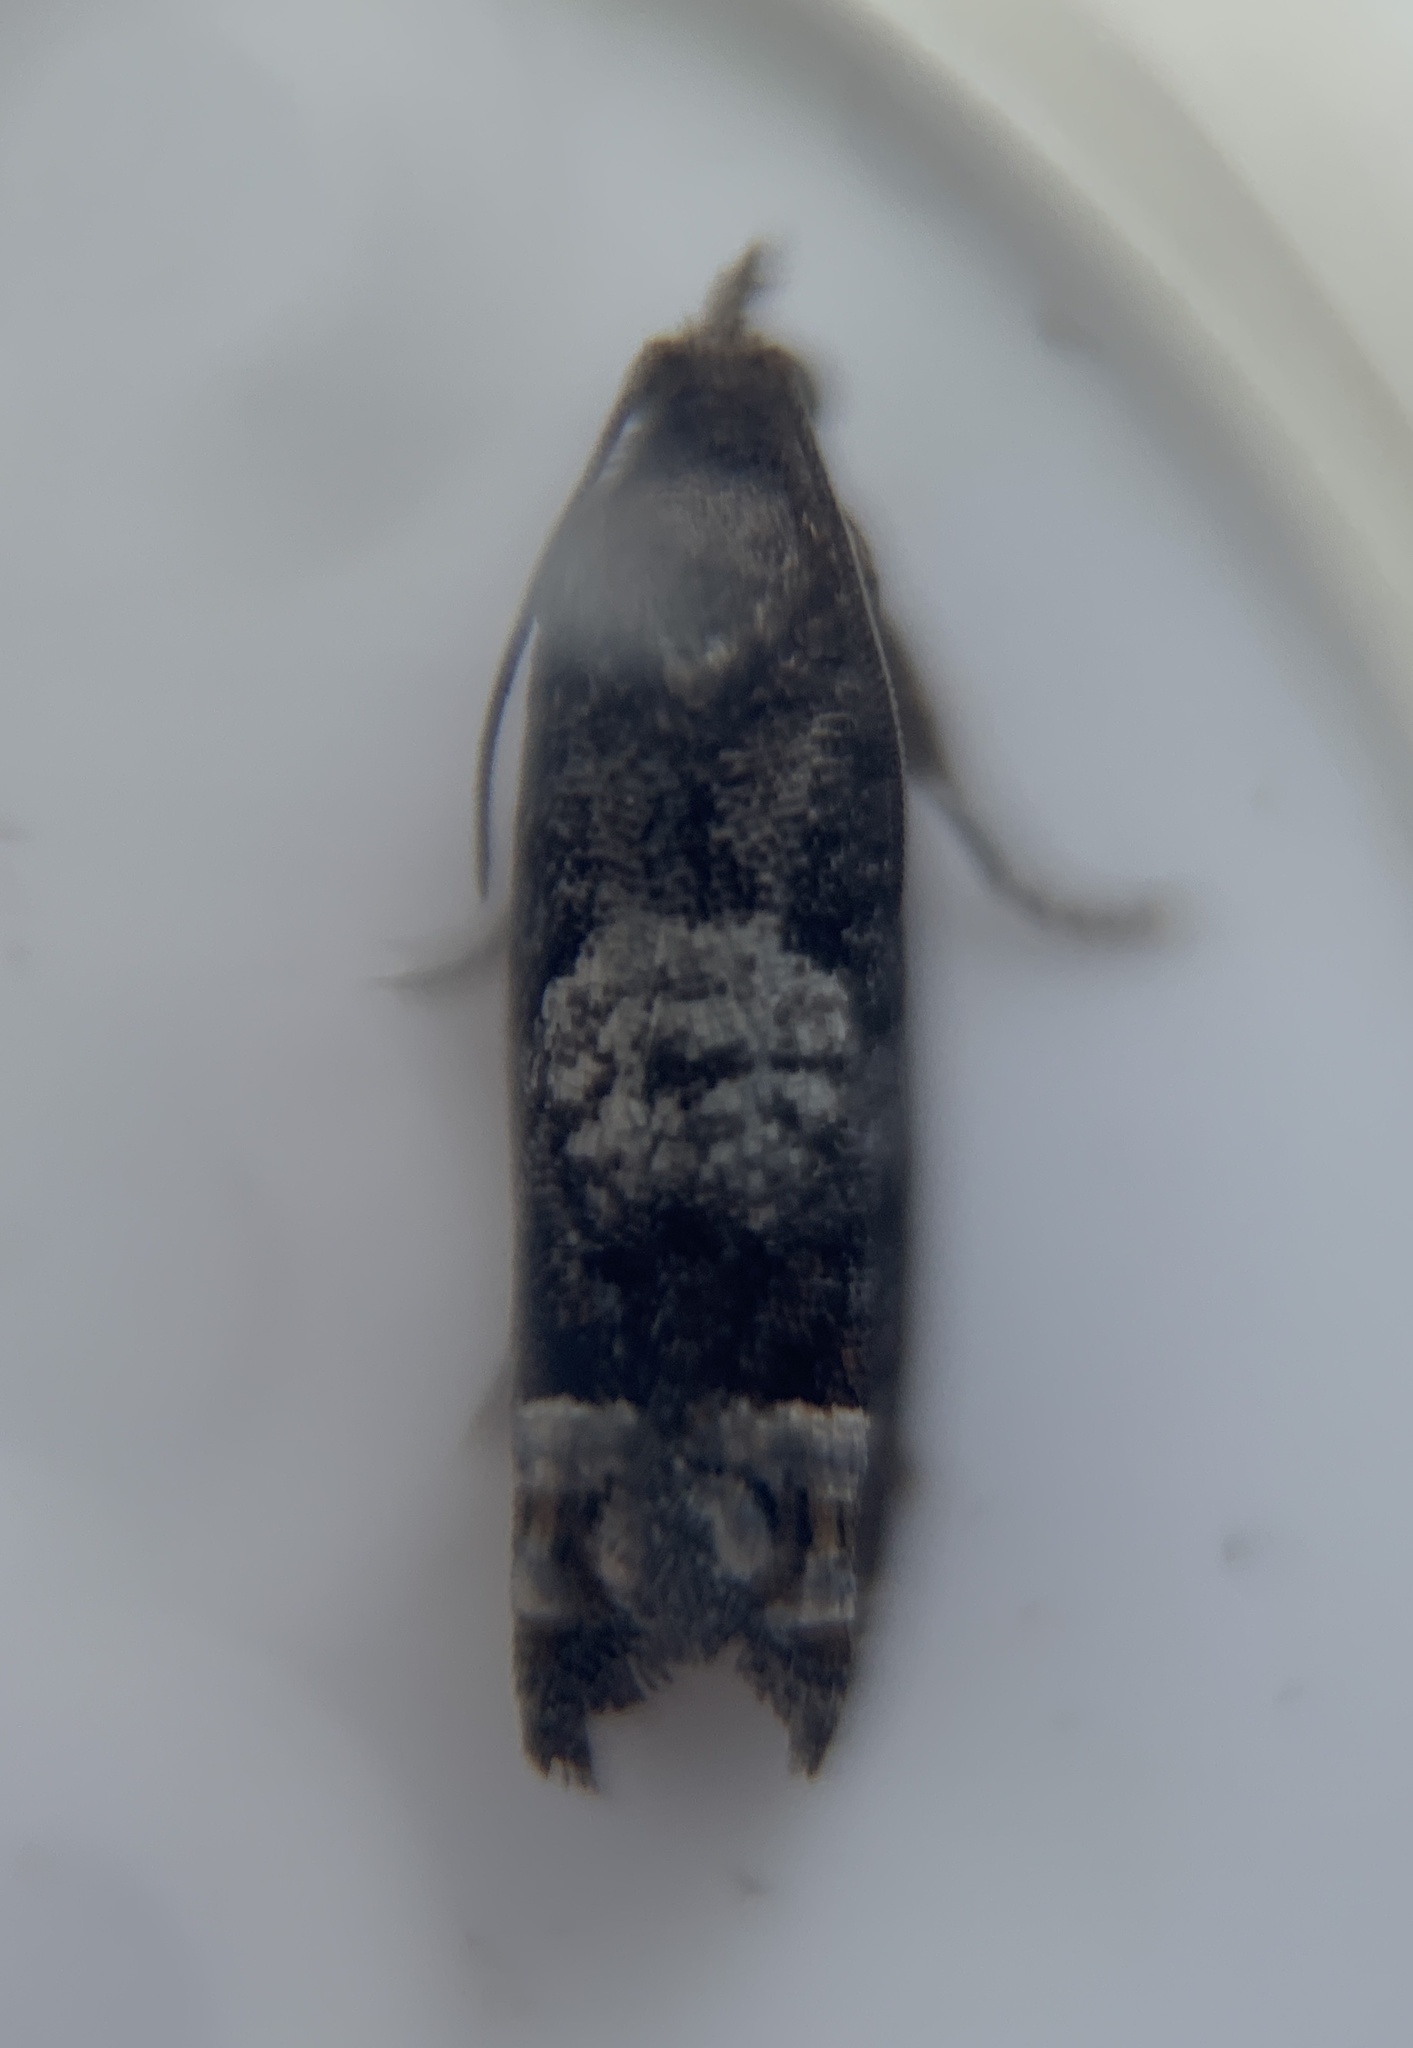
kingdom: Animalia
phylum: Arthropoda
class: Insecta
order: Lepidoptera
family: Tortricidae
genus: Eucosma
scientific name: Eucosma parmatana
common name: Aster eucosma moth
